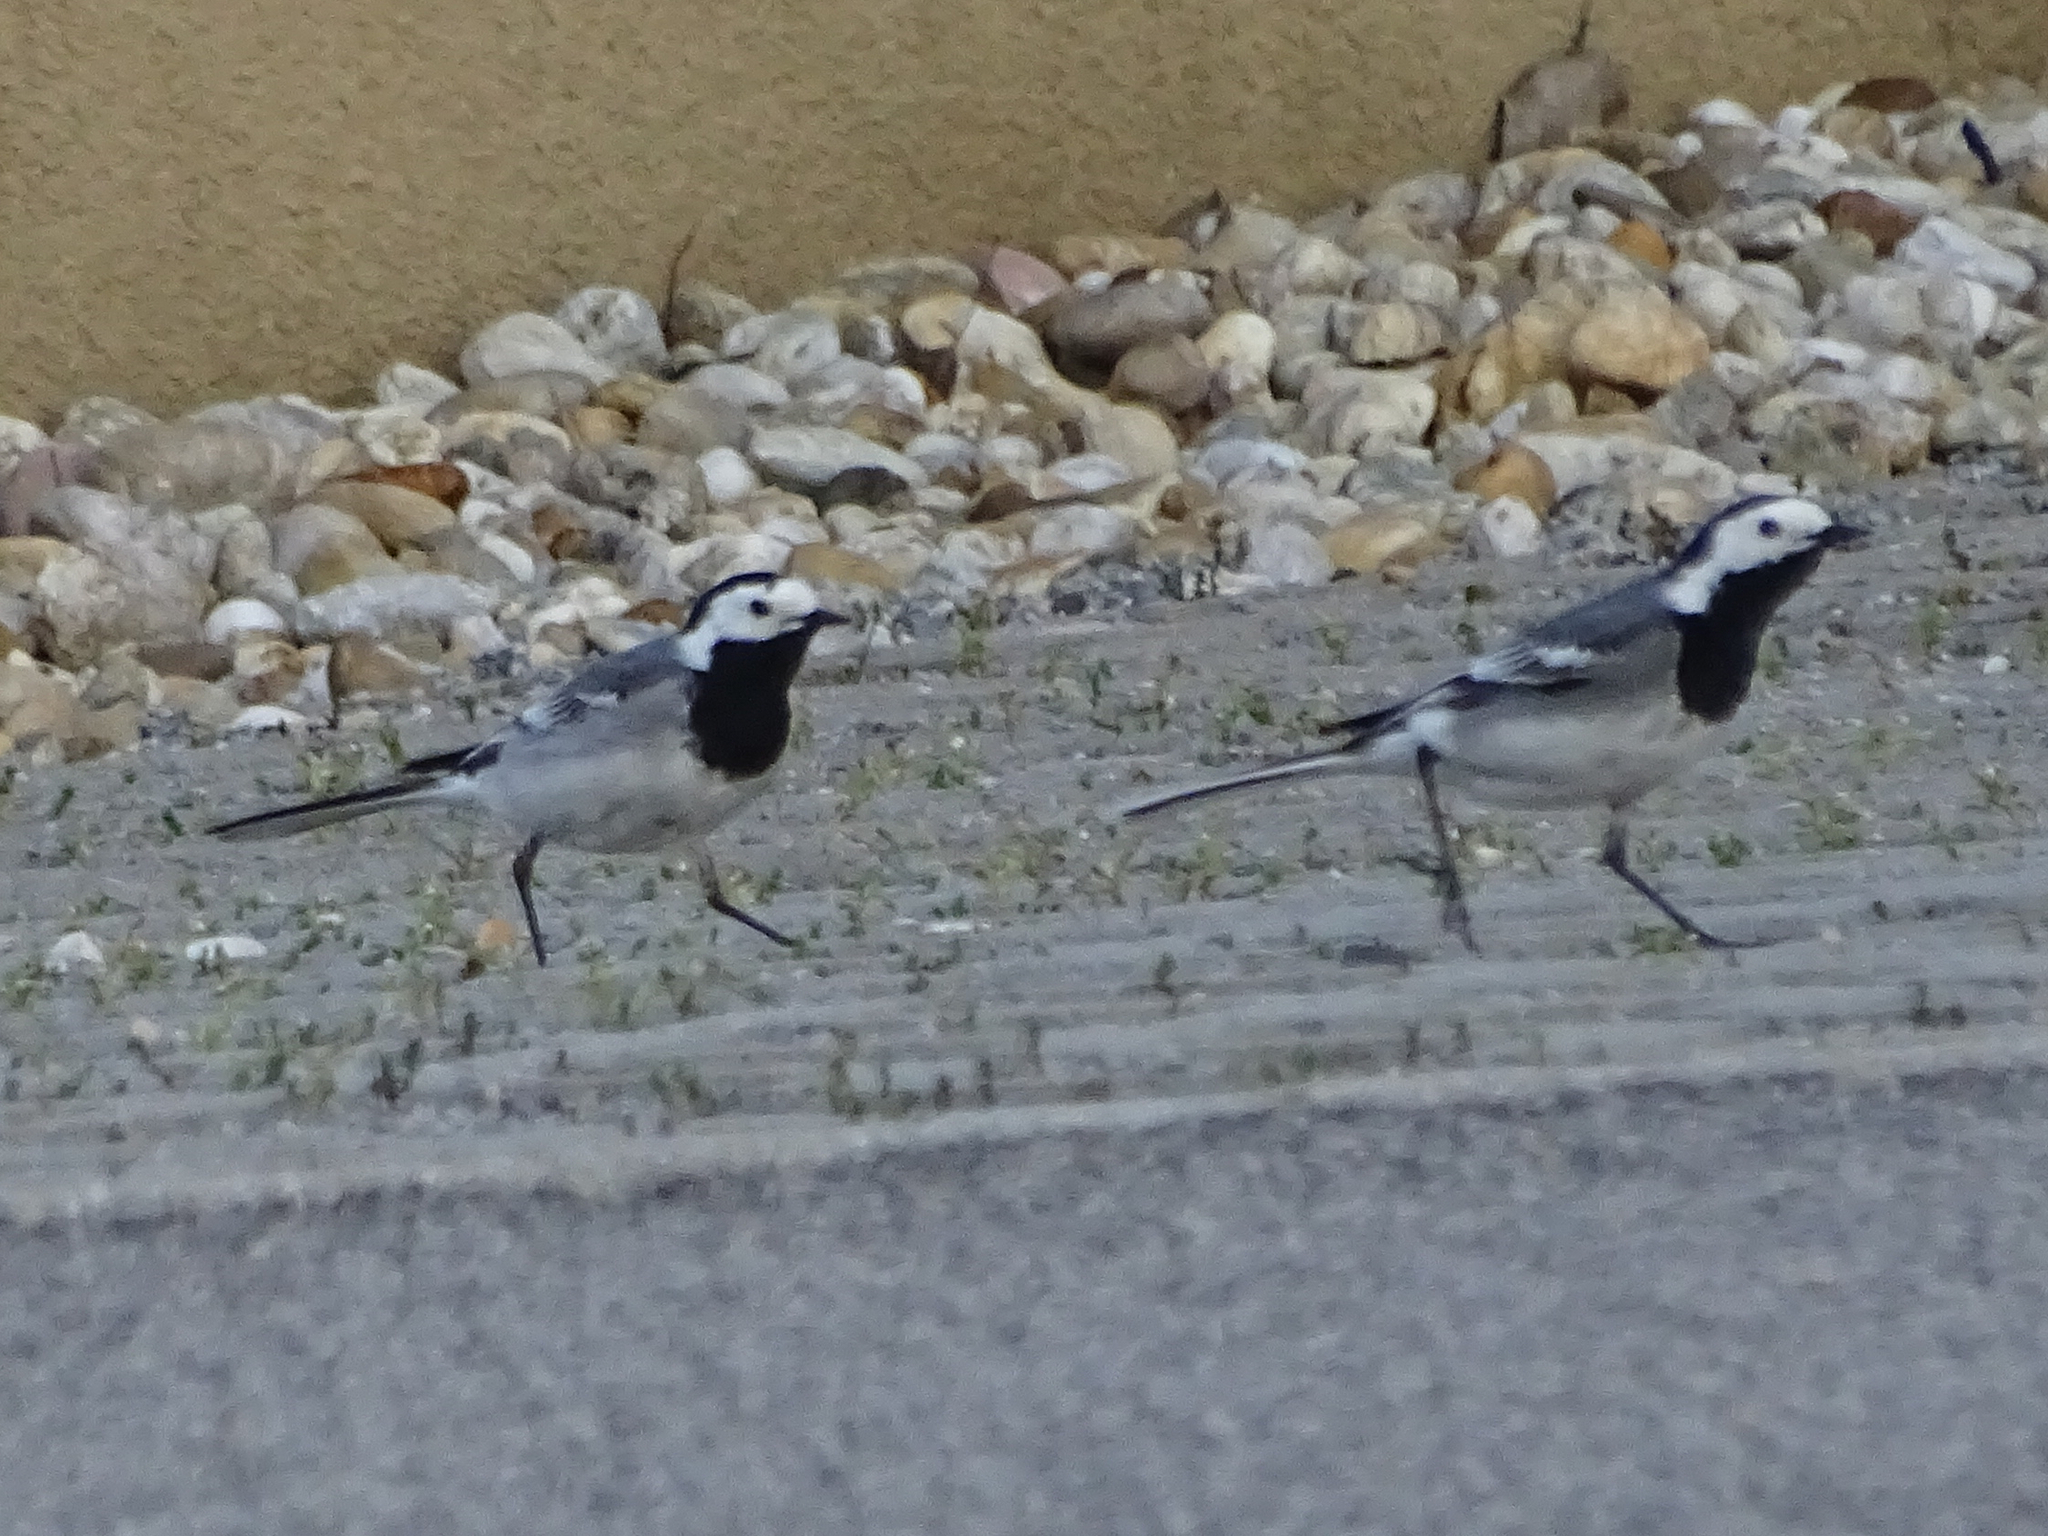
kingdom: Animalia
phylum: Chordata
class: Aves
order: Passeriformes
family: Motacillidae
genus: Motacilla
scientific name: Motacilla alba
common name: White wagtail
